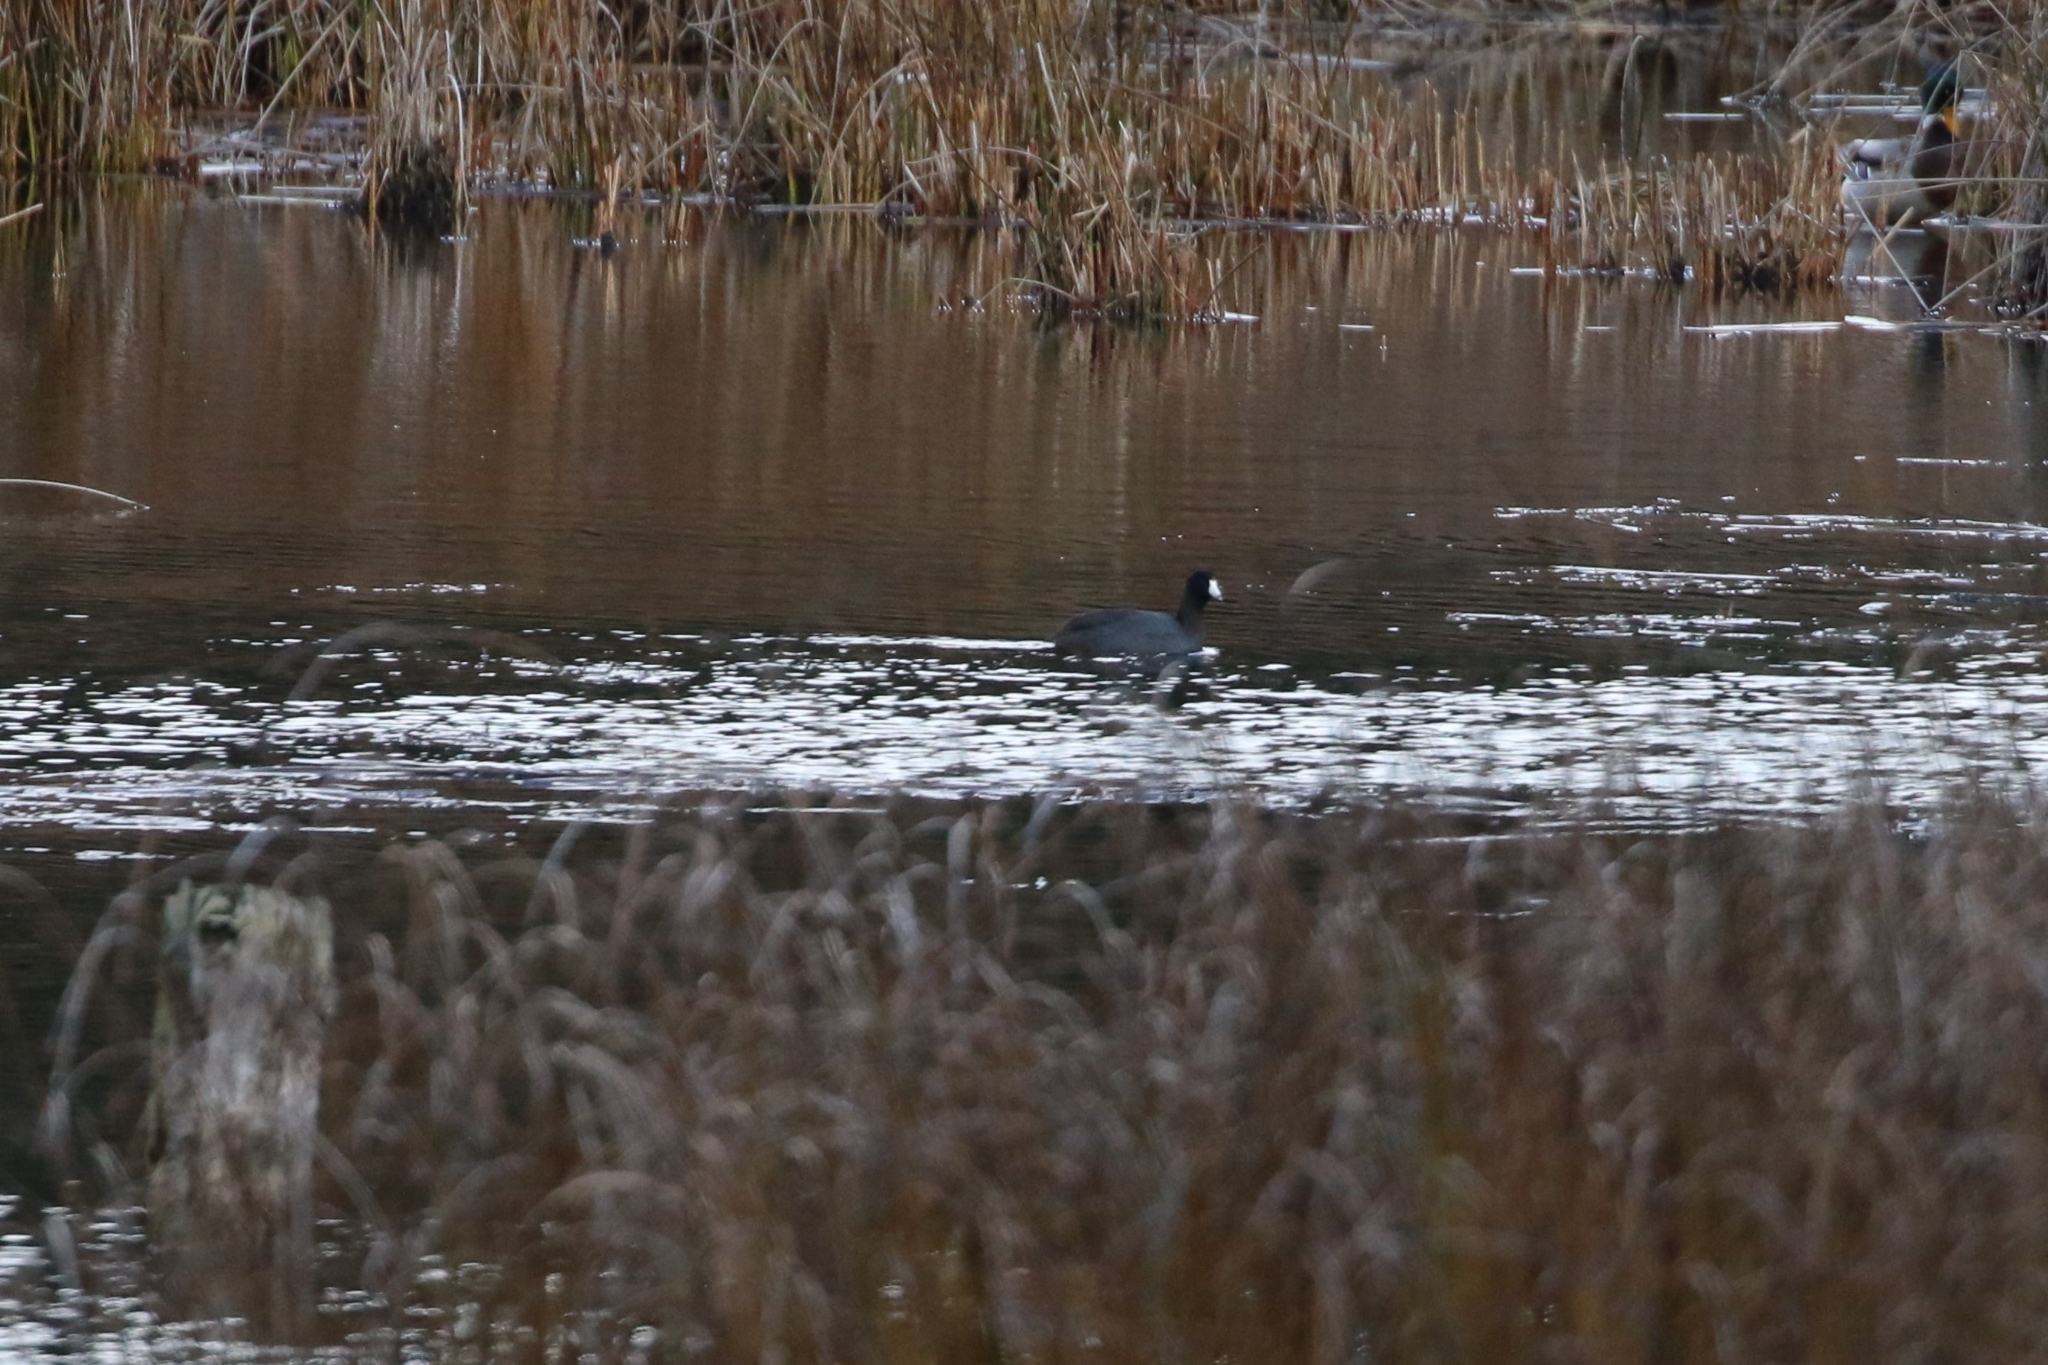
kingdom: Animalia
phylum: Chordata
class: Aves
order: Gruiformes
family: Rallidae
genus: Fulica
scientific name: Fulica americana
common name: American coot
